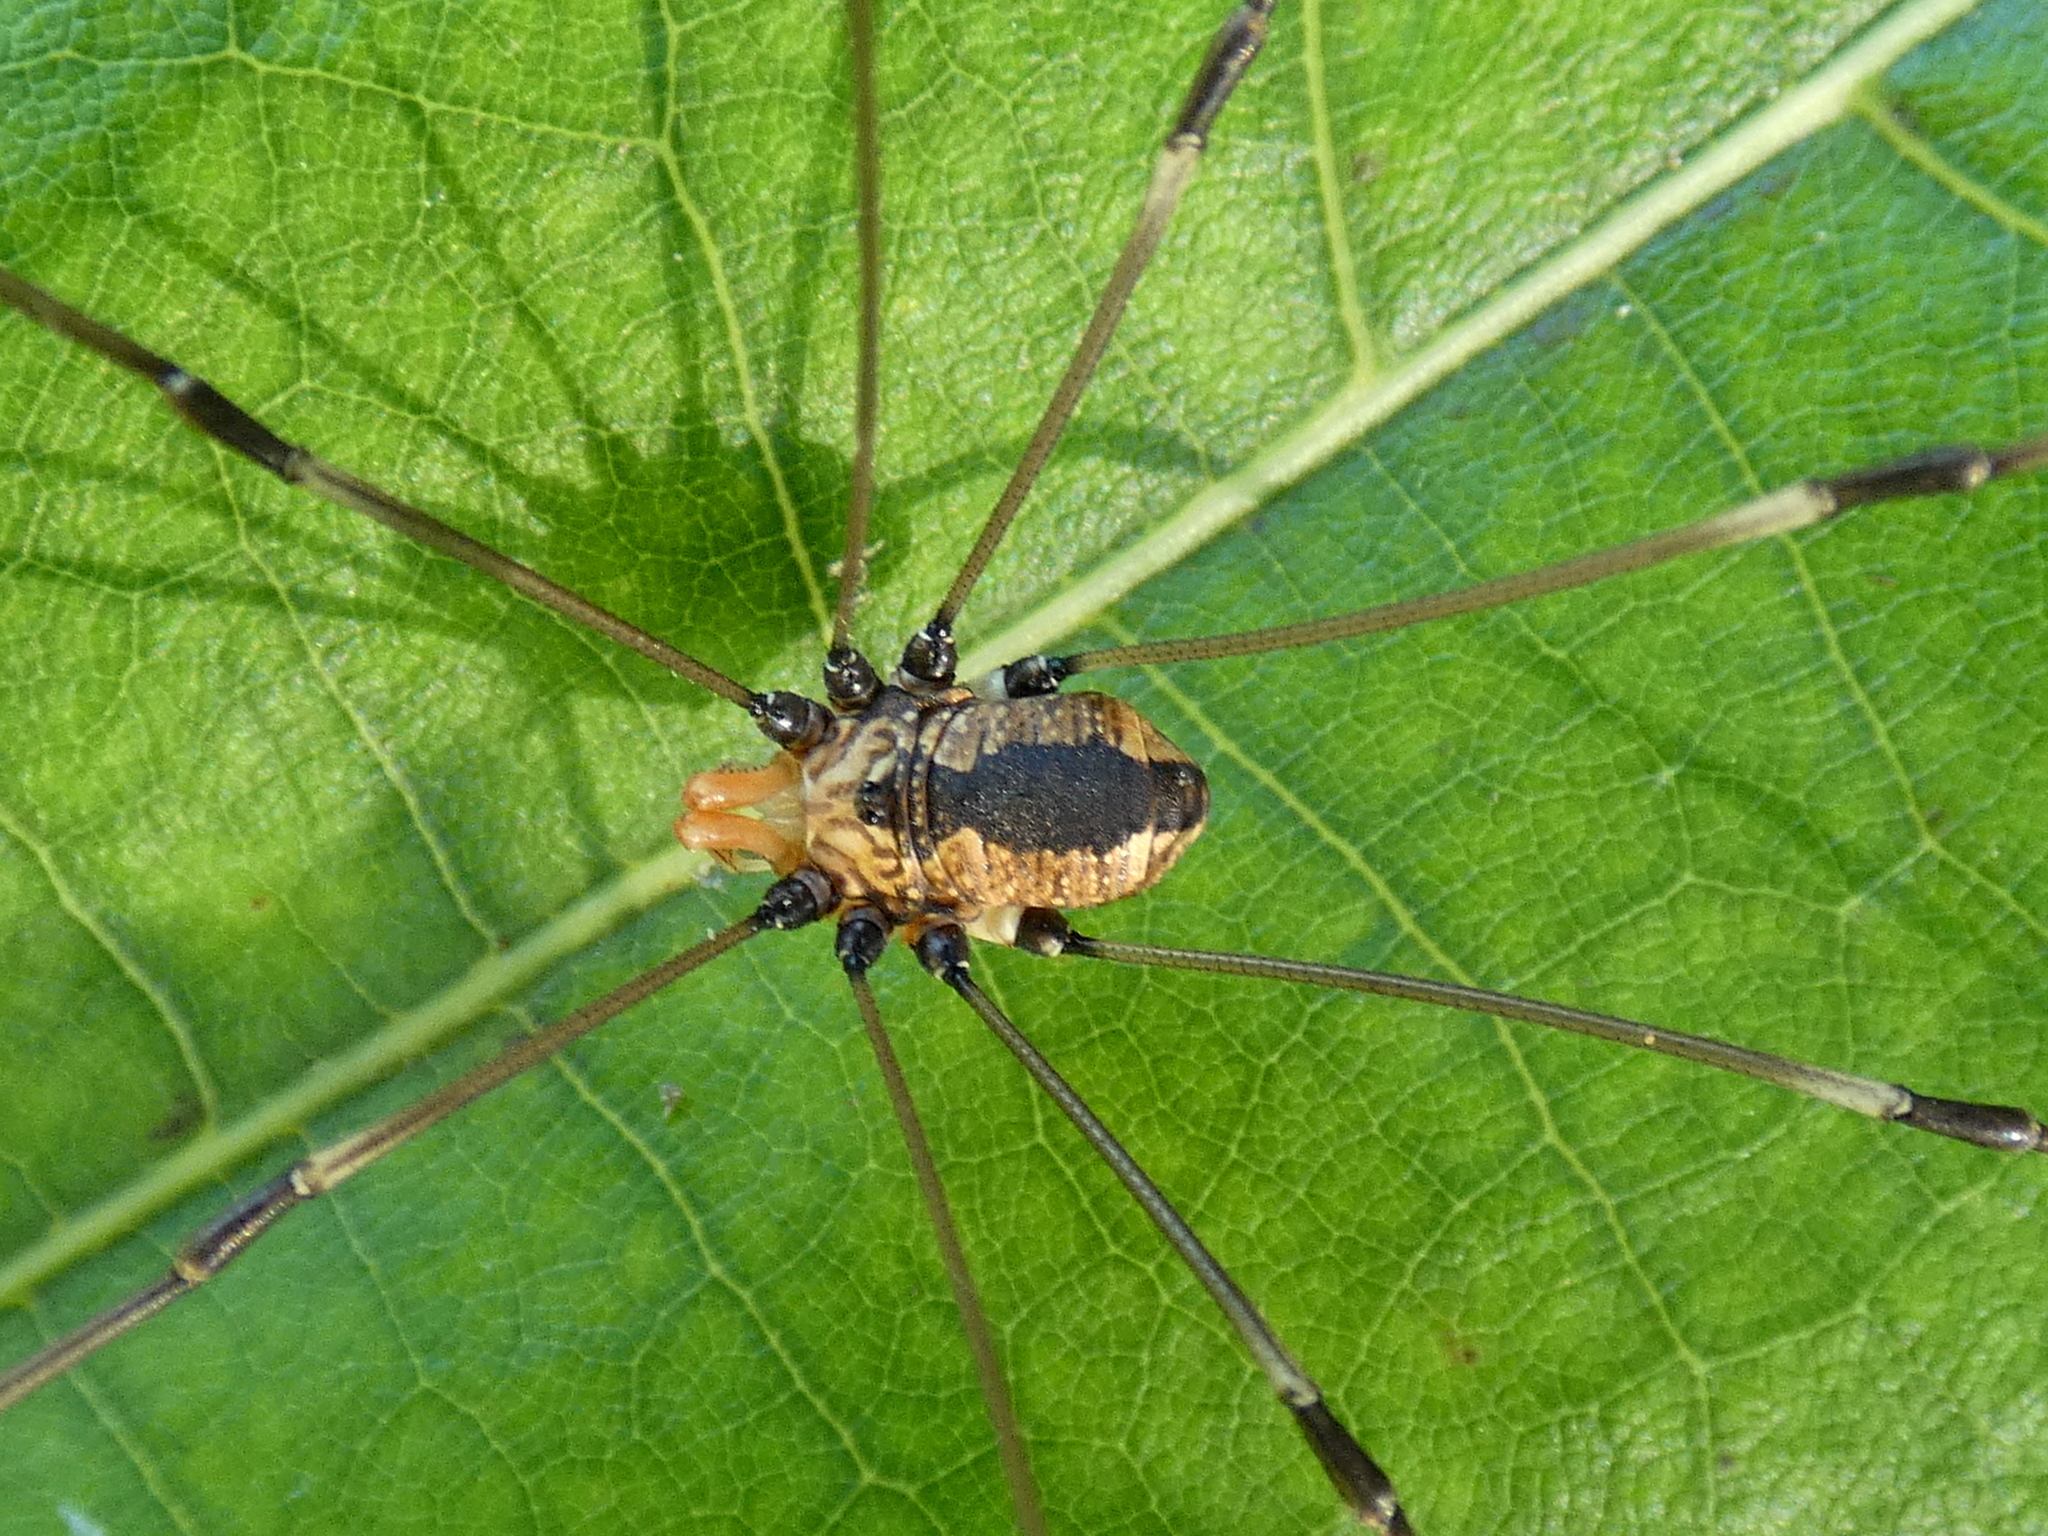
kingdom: Animalia
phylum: Arthropoda
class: Arachnida
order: Opiliones
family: Sclerosomatidae
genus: Leiobunum
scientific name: Leiobunum vittatum
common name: Eastern harvestman
